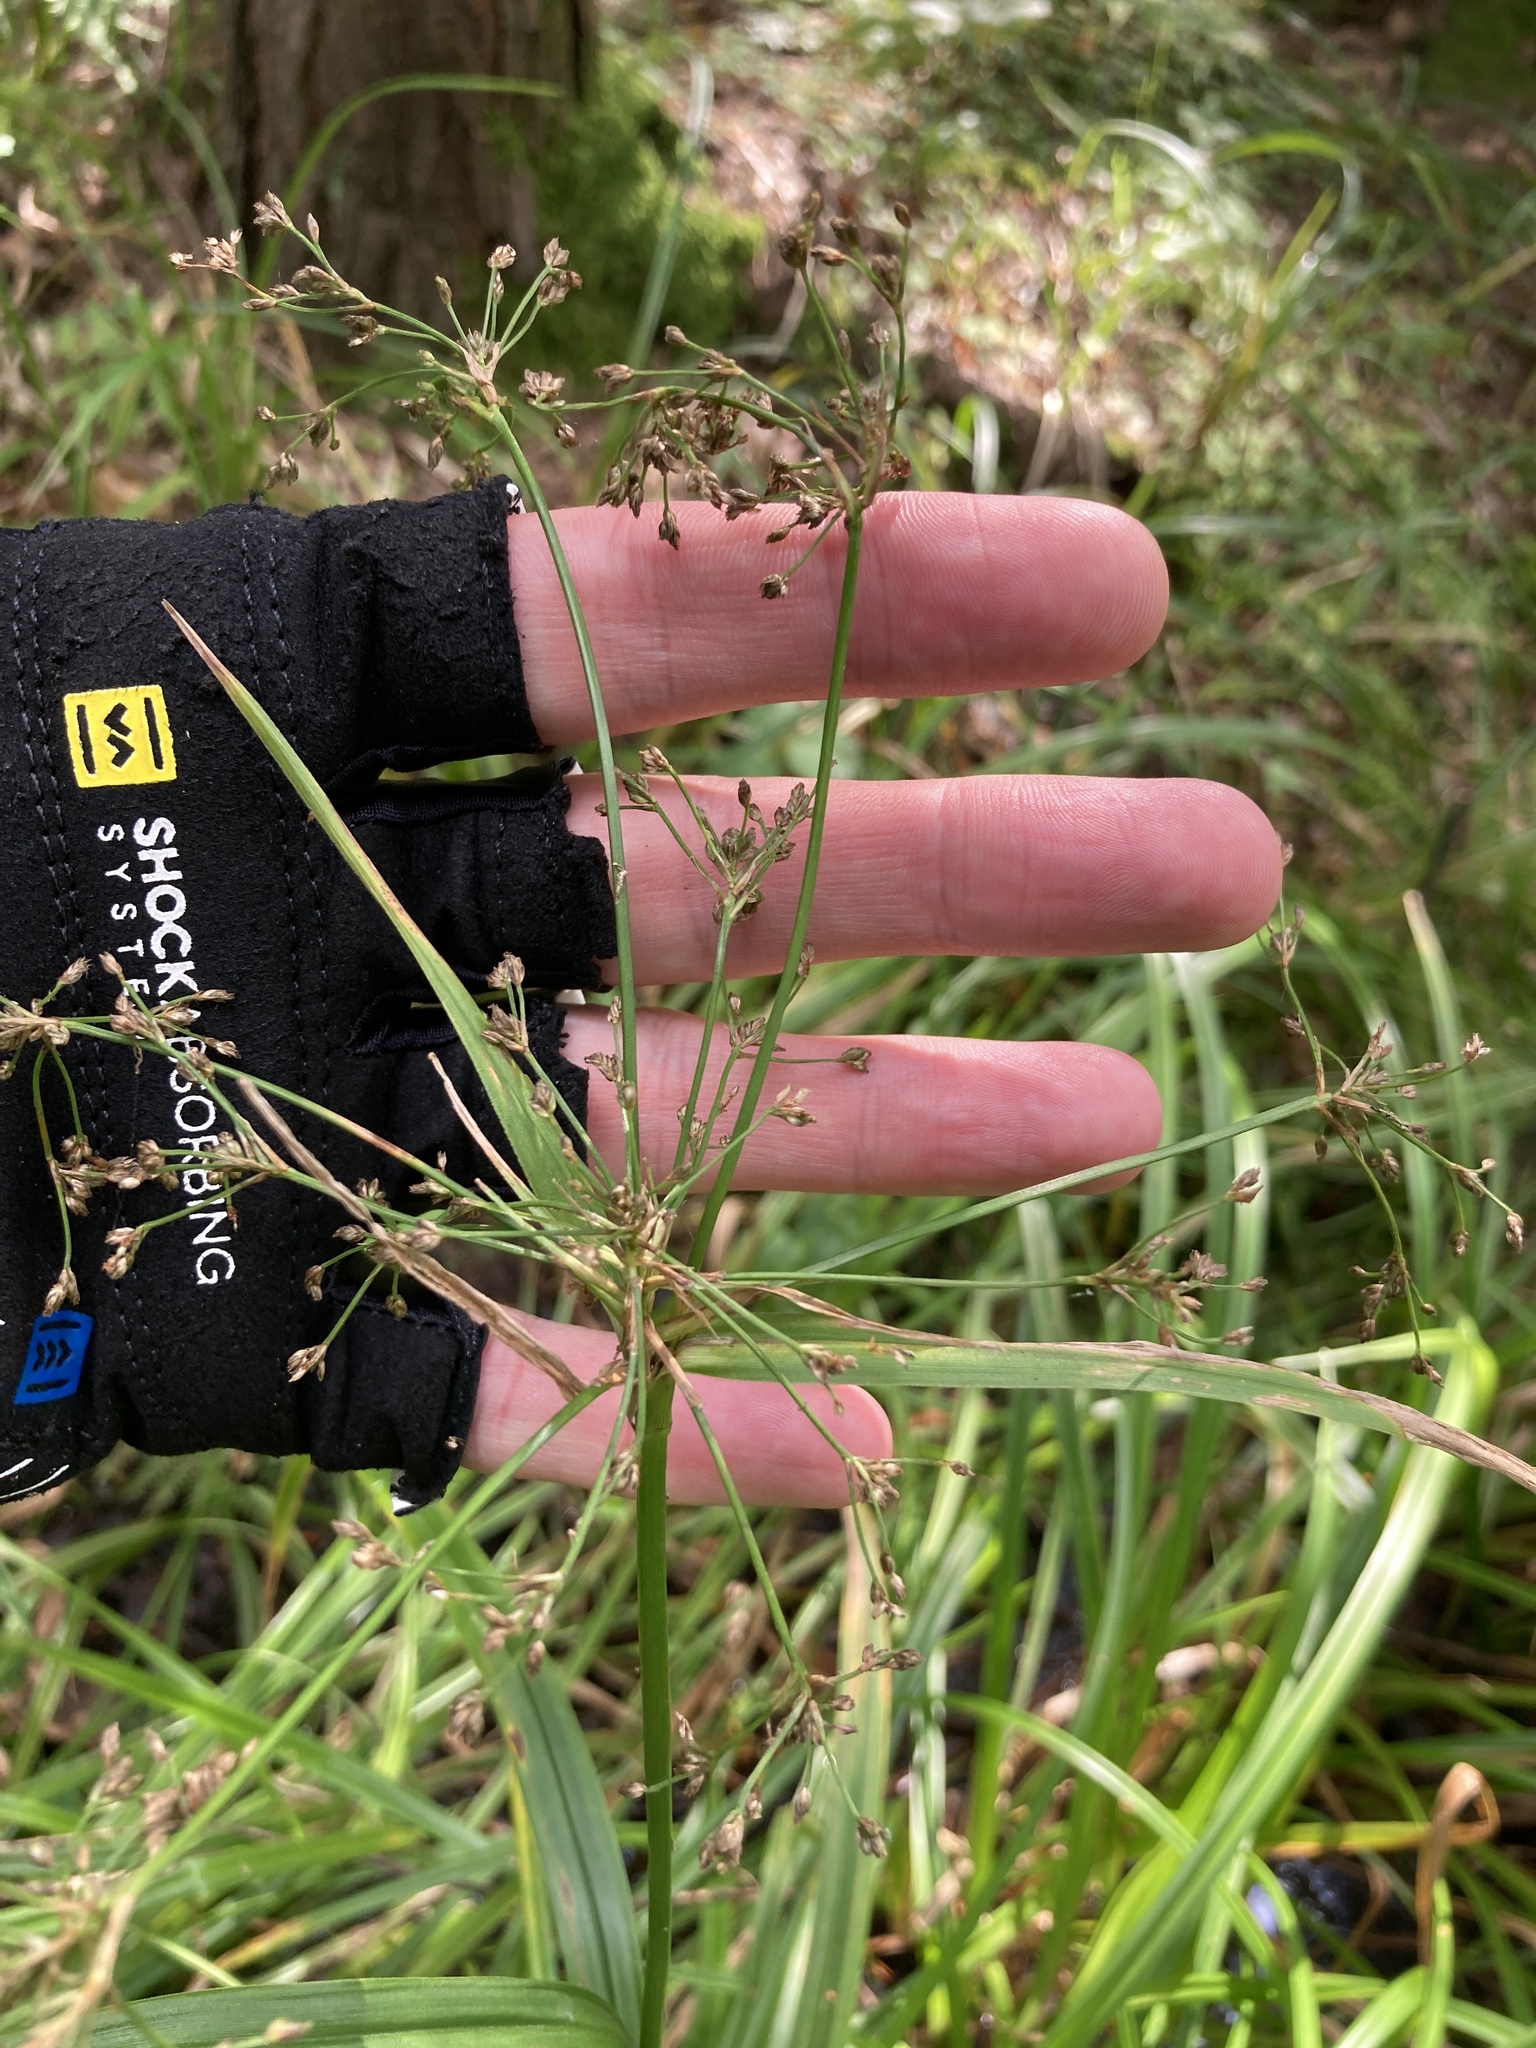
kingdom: Plantae
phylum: Tracheophyta
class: Liliopsida
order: Poales
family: Cyperaceae
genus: Scirpus
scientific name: Scirpus sylvaticus
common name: Wood club-rush
